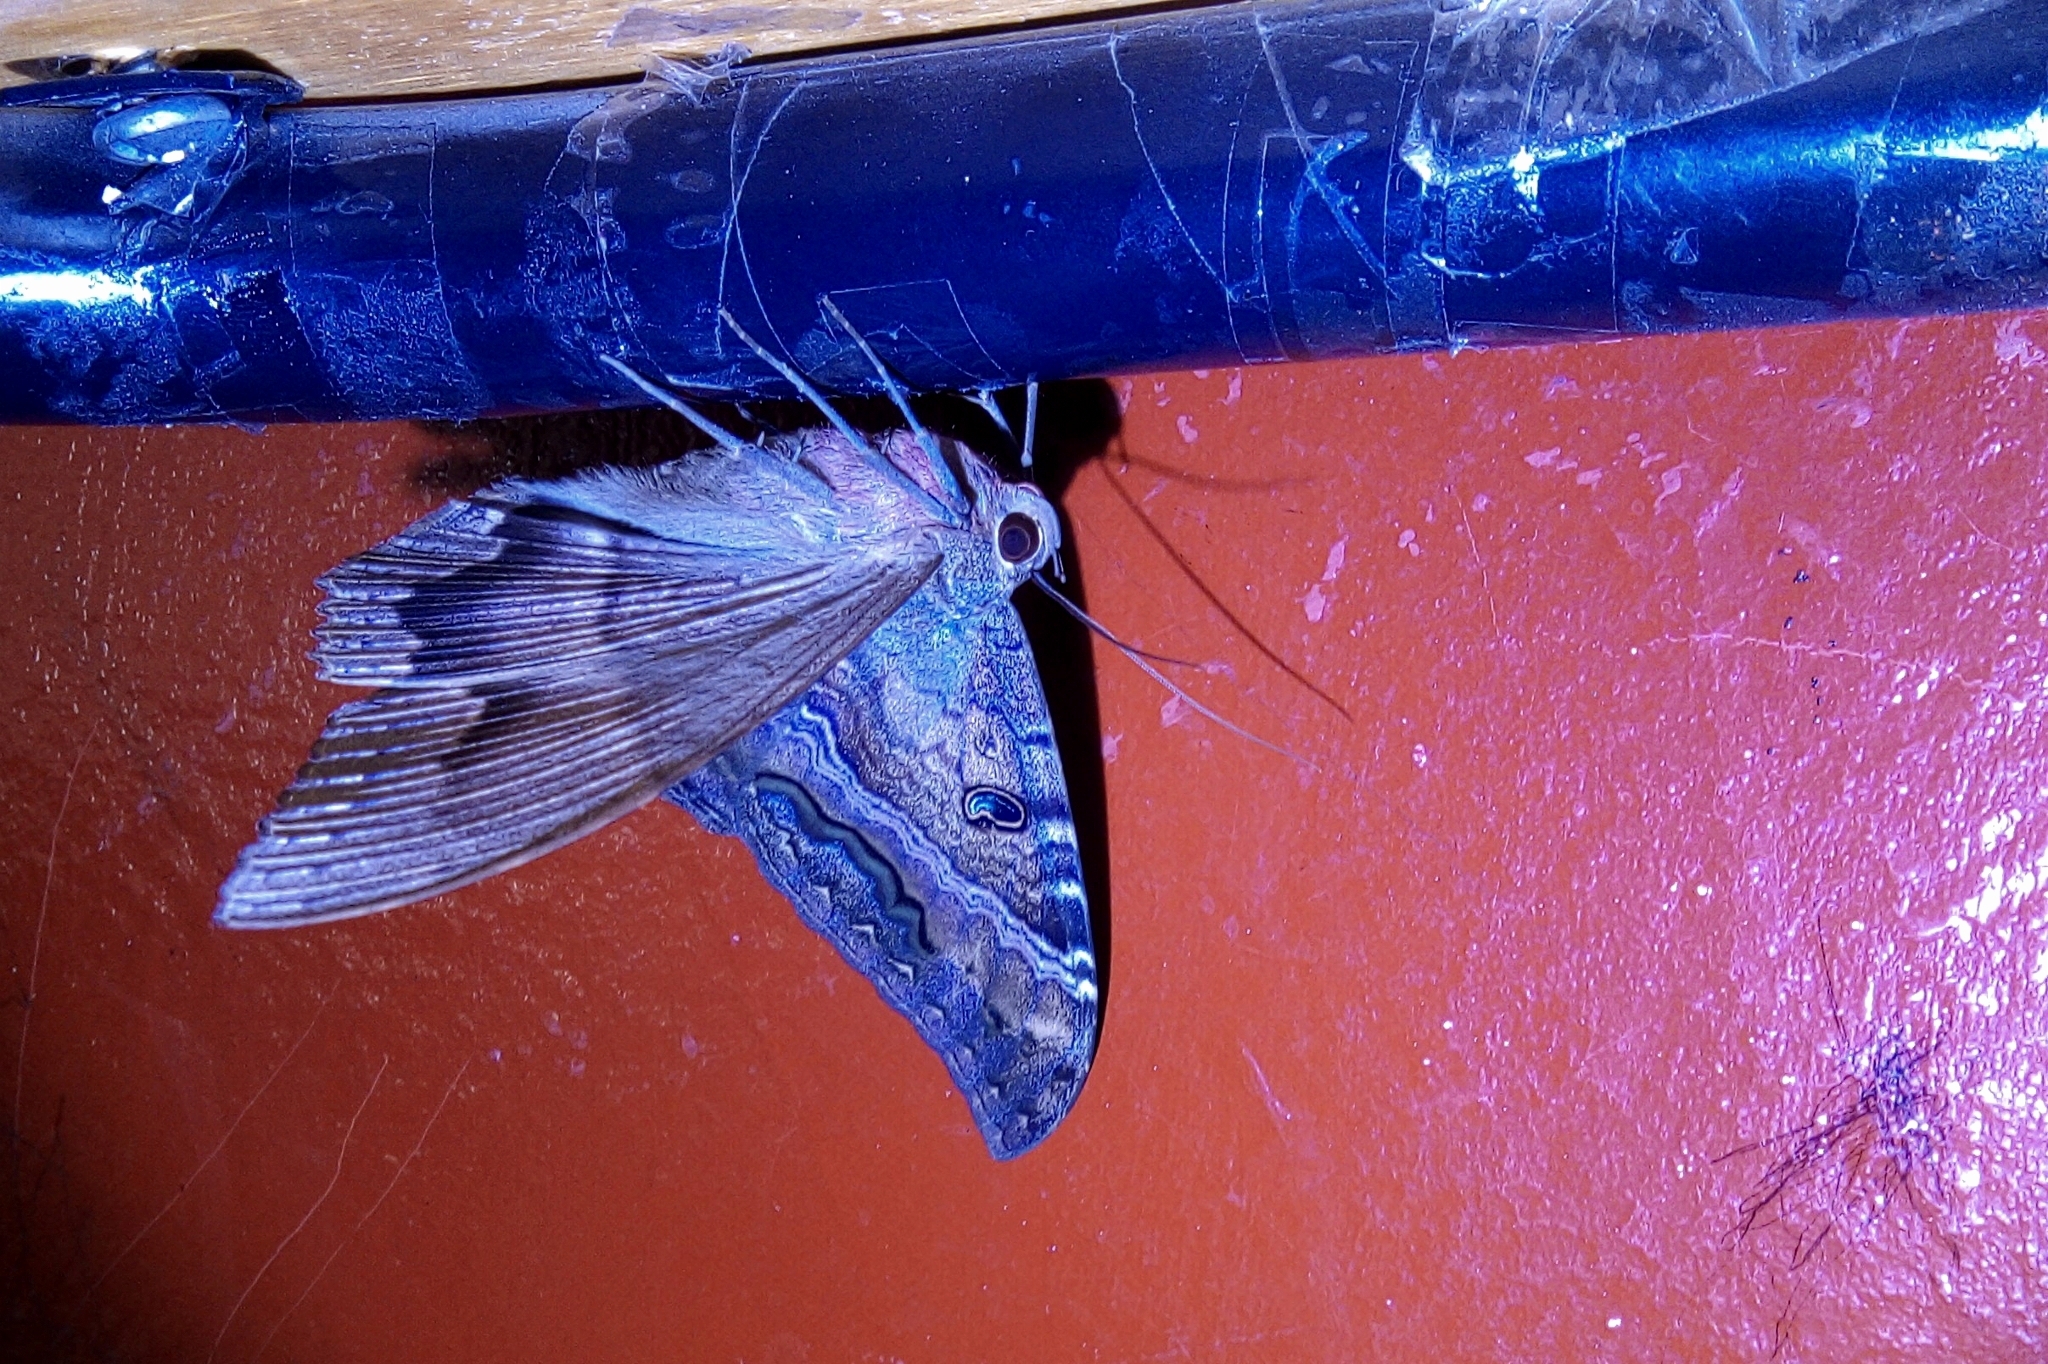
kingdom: Animalia
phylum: Arthropoda
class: Insecta
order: Lepidoptera
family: Erebidae
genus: Ascalapha
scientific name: Ascalapha odorata
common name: Black witch
